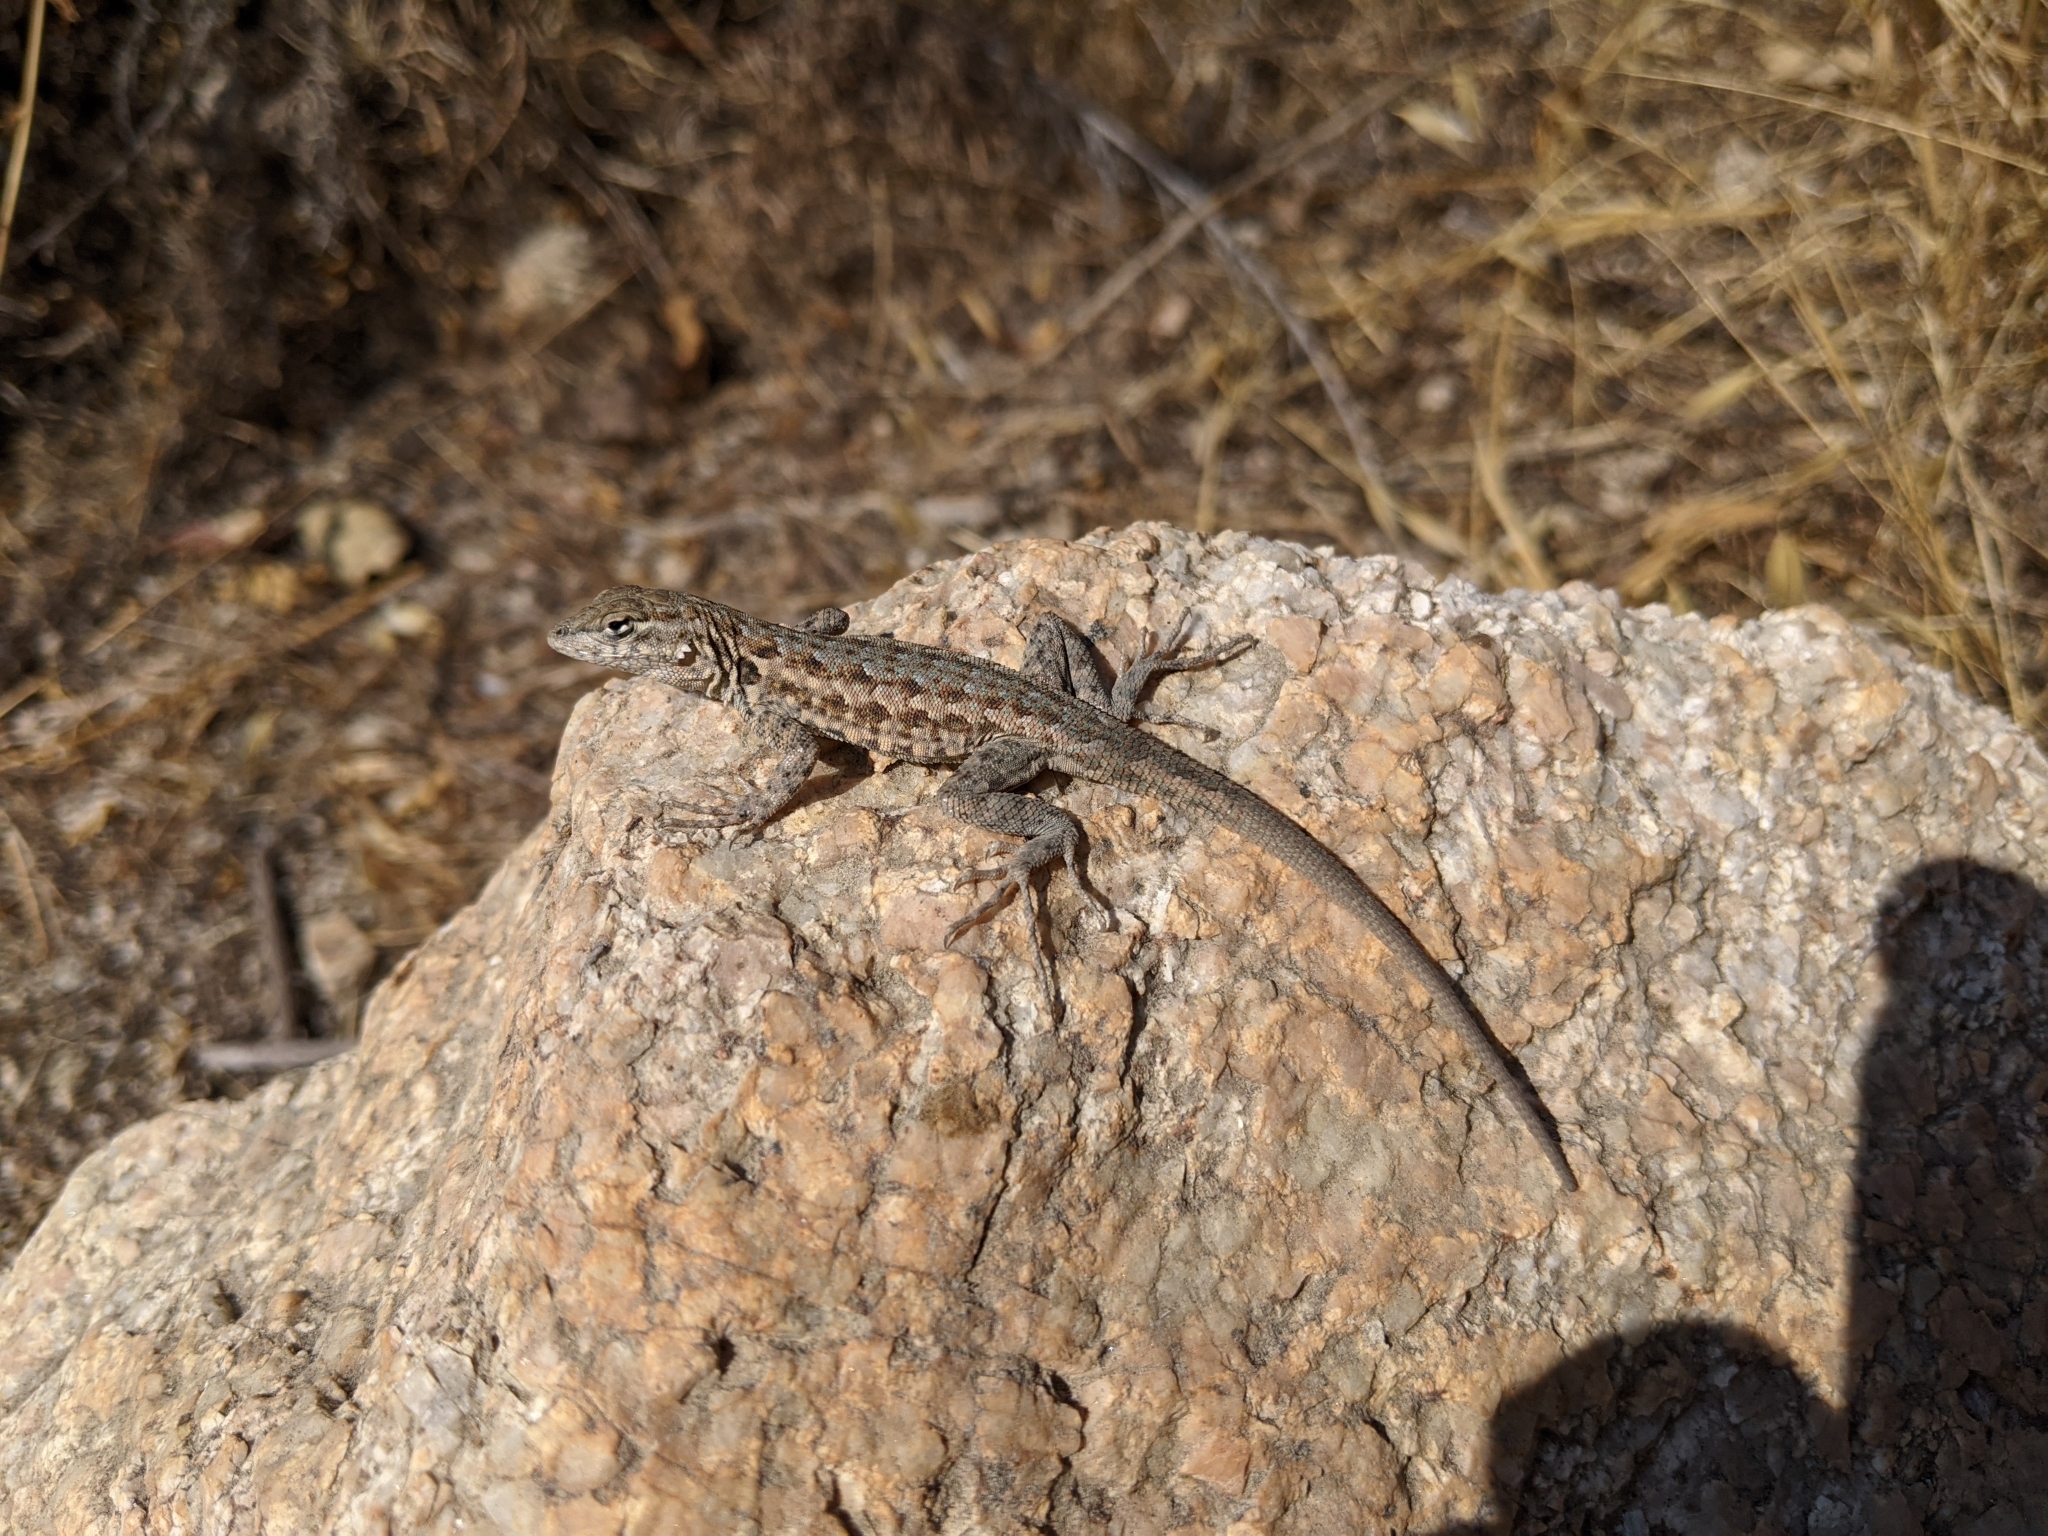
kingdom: Animalia
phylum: Chordata
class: Squamata
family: Phrynosomatidae
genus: Uta
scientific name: Uta stansburiana
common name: Side-blotched lizard
